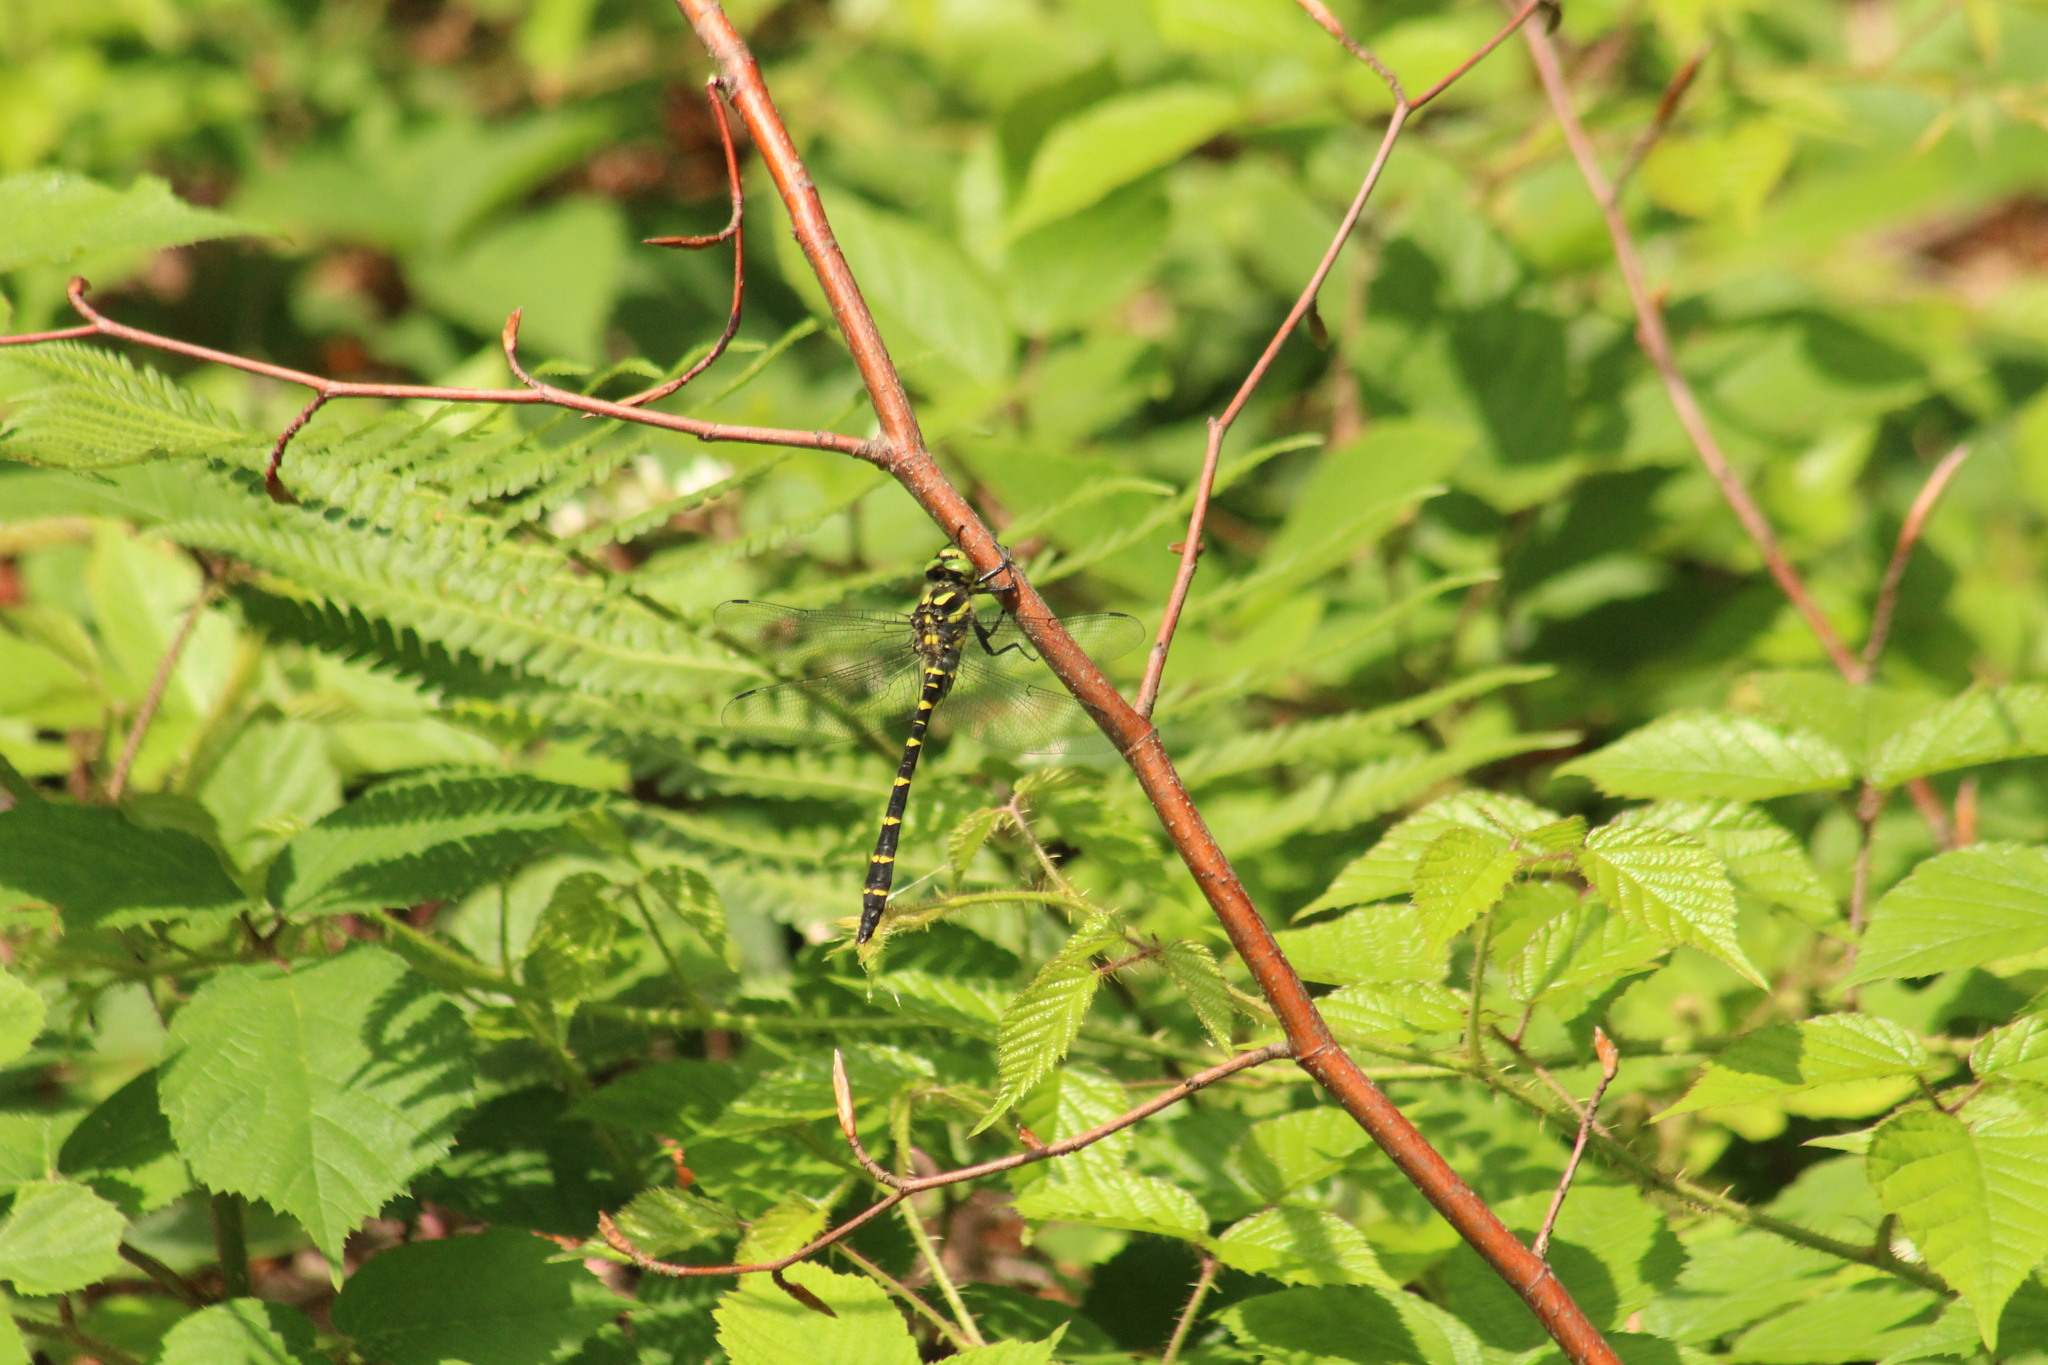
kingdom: Animalia
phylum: Arthropoda
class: Insecta
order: Odonata
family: Cordulegastridae
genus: Cordulegaster
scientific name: Cordulegaster bidentata
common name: Sombre goldenring
